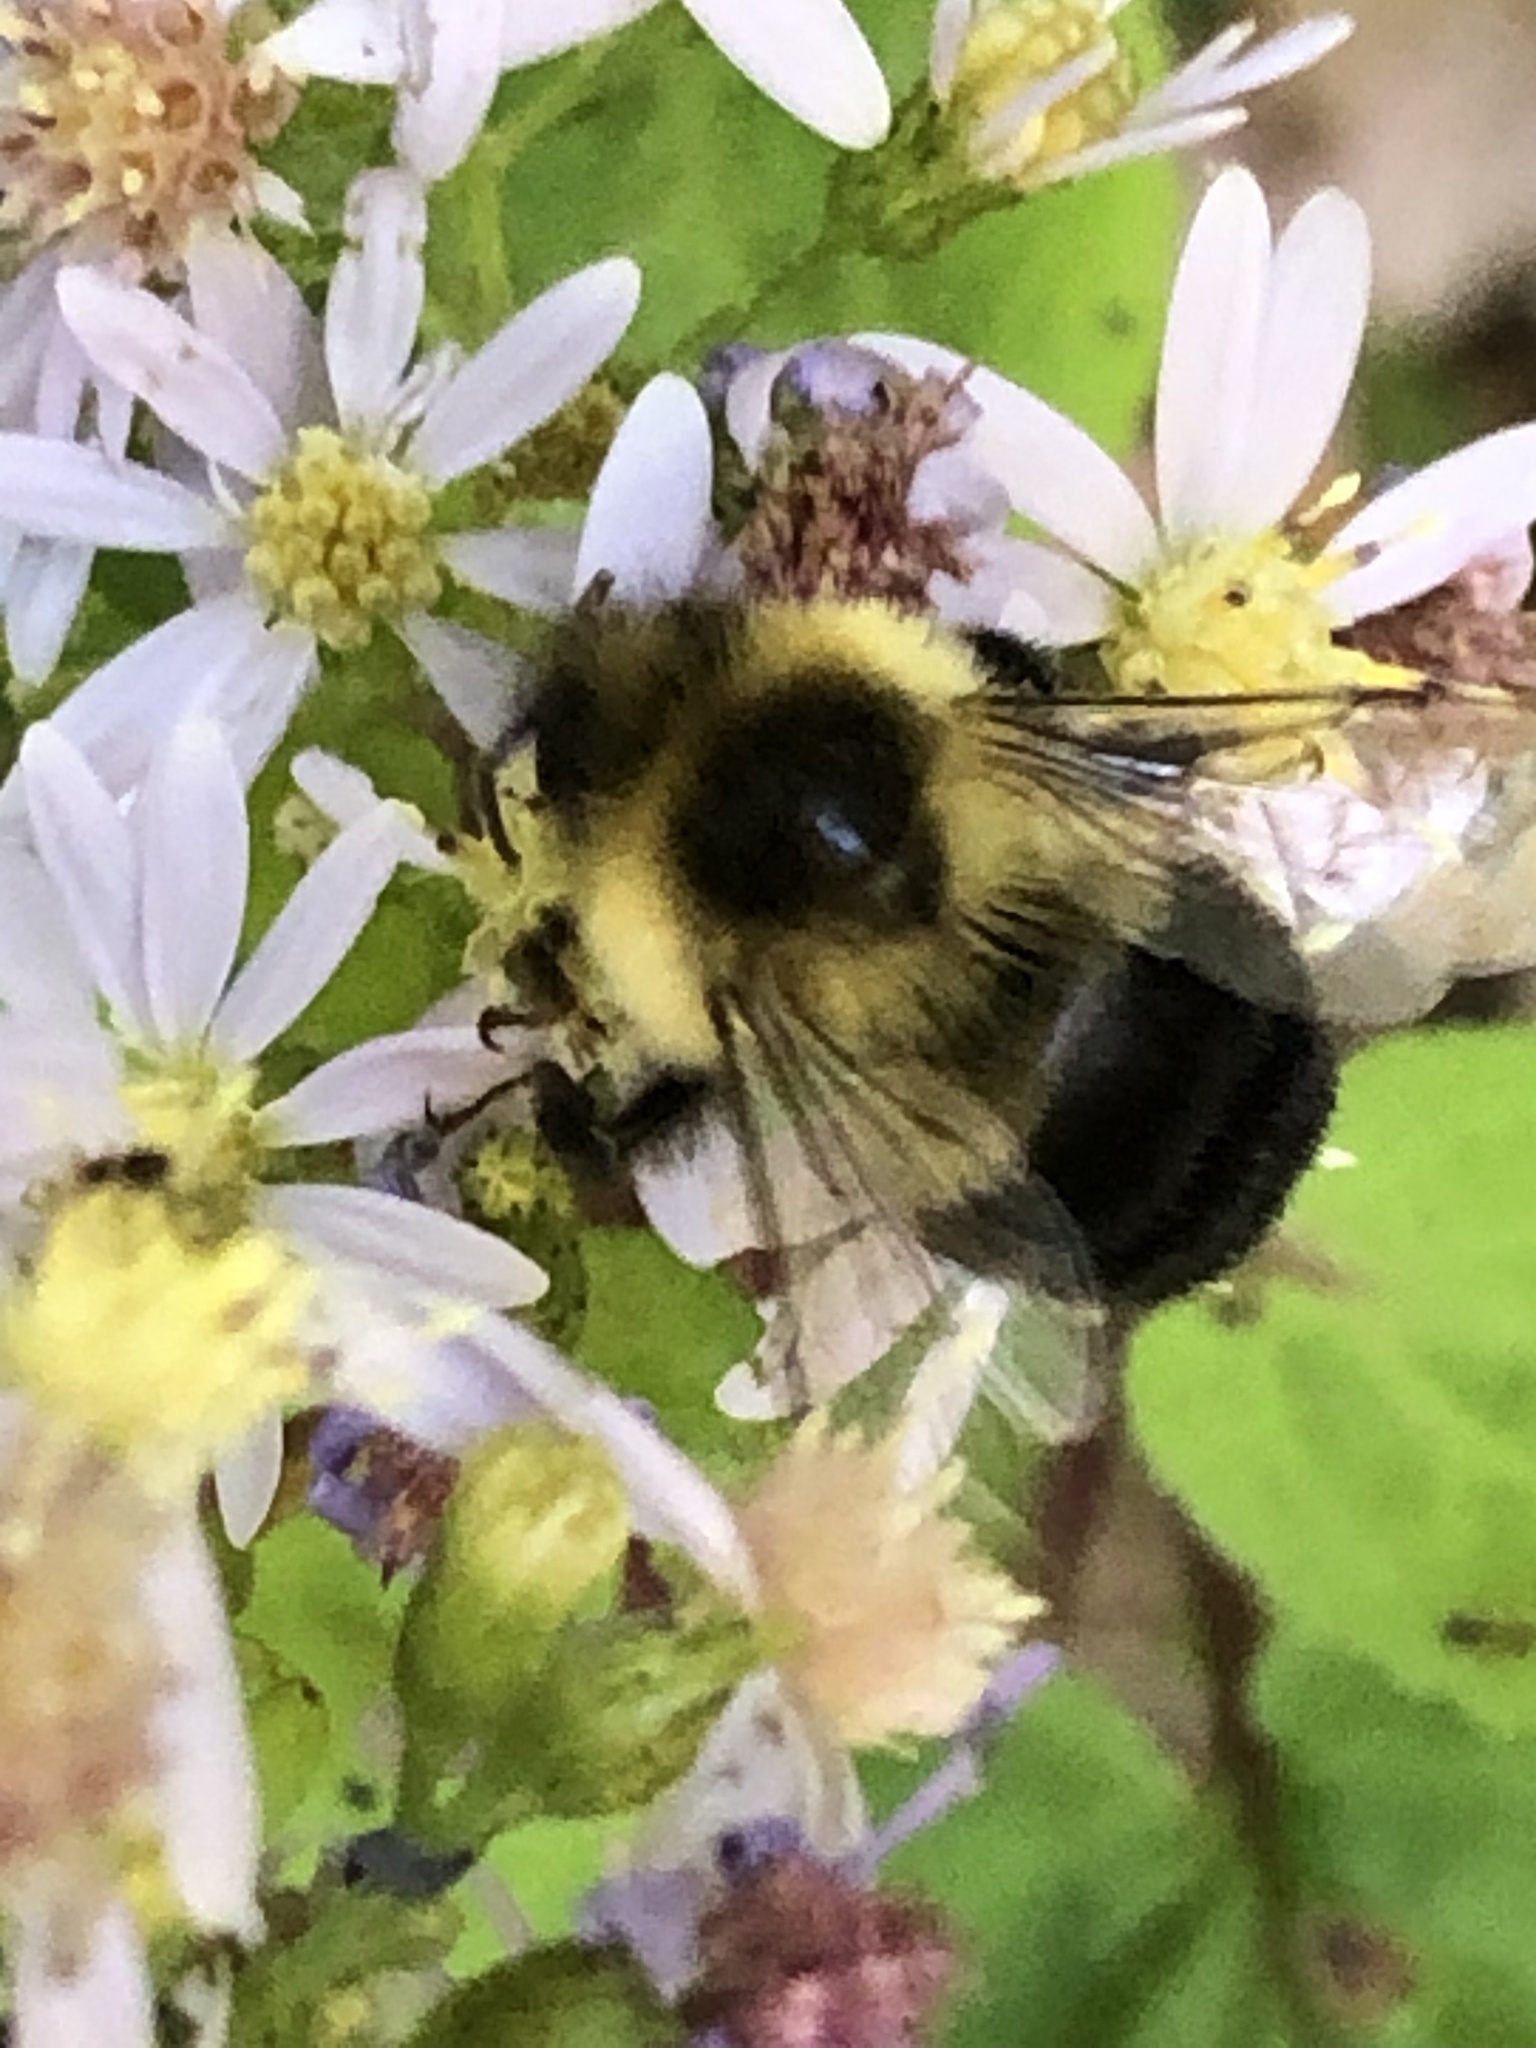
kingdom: Animalia
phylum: Arthropoda
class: Insecta
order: Hymenoptera
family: Apidae
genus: Bombus
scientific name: Bombus impatiens
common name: Common eastern bumble bee
